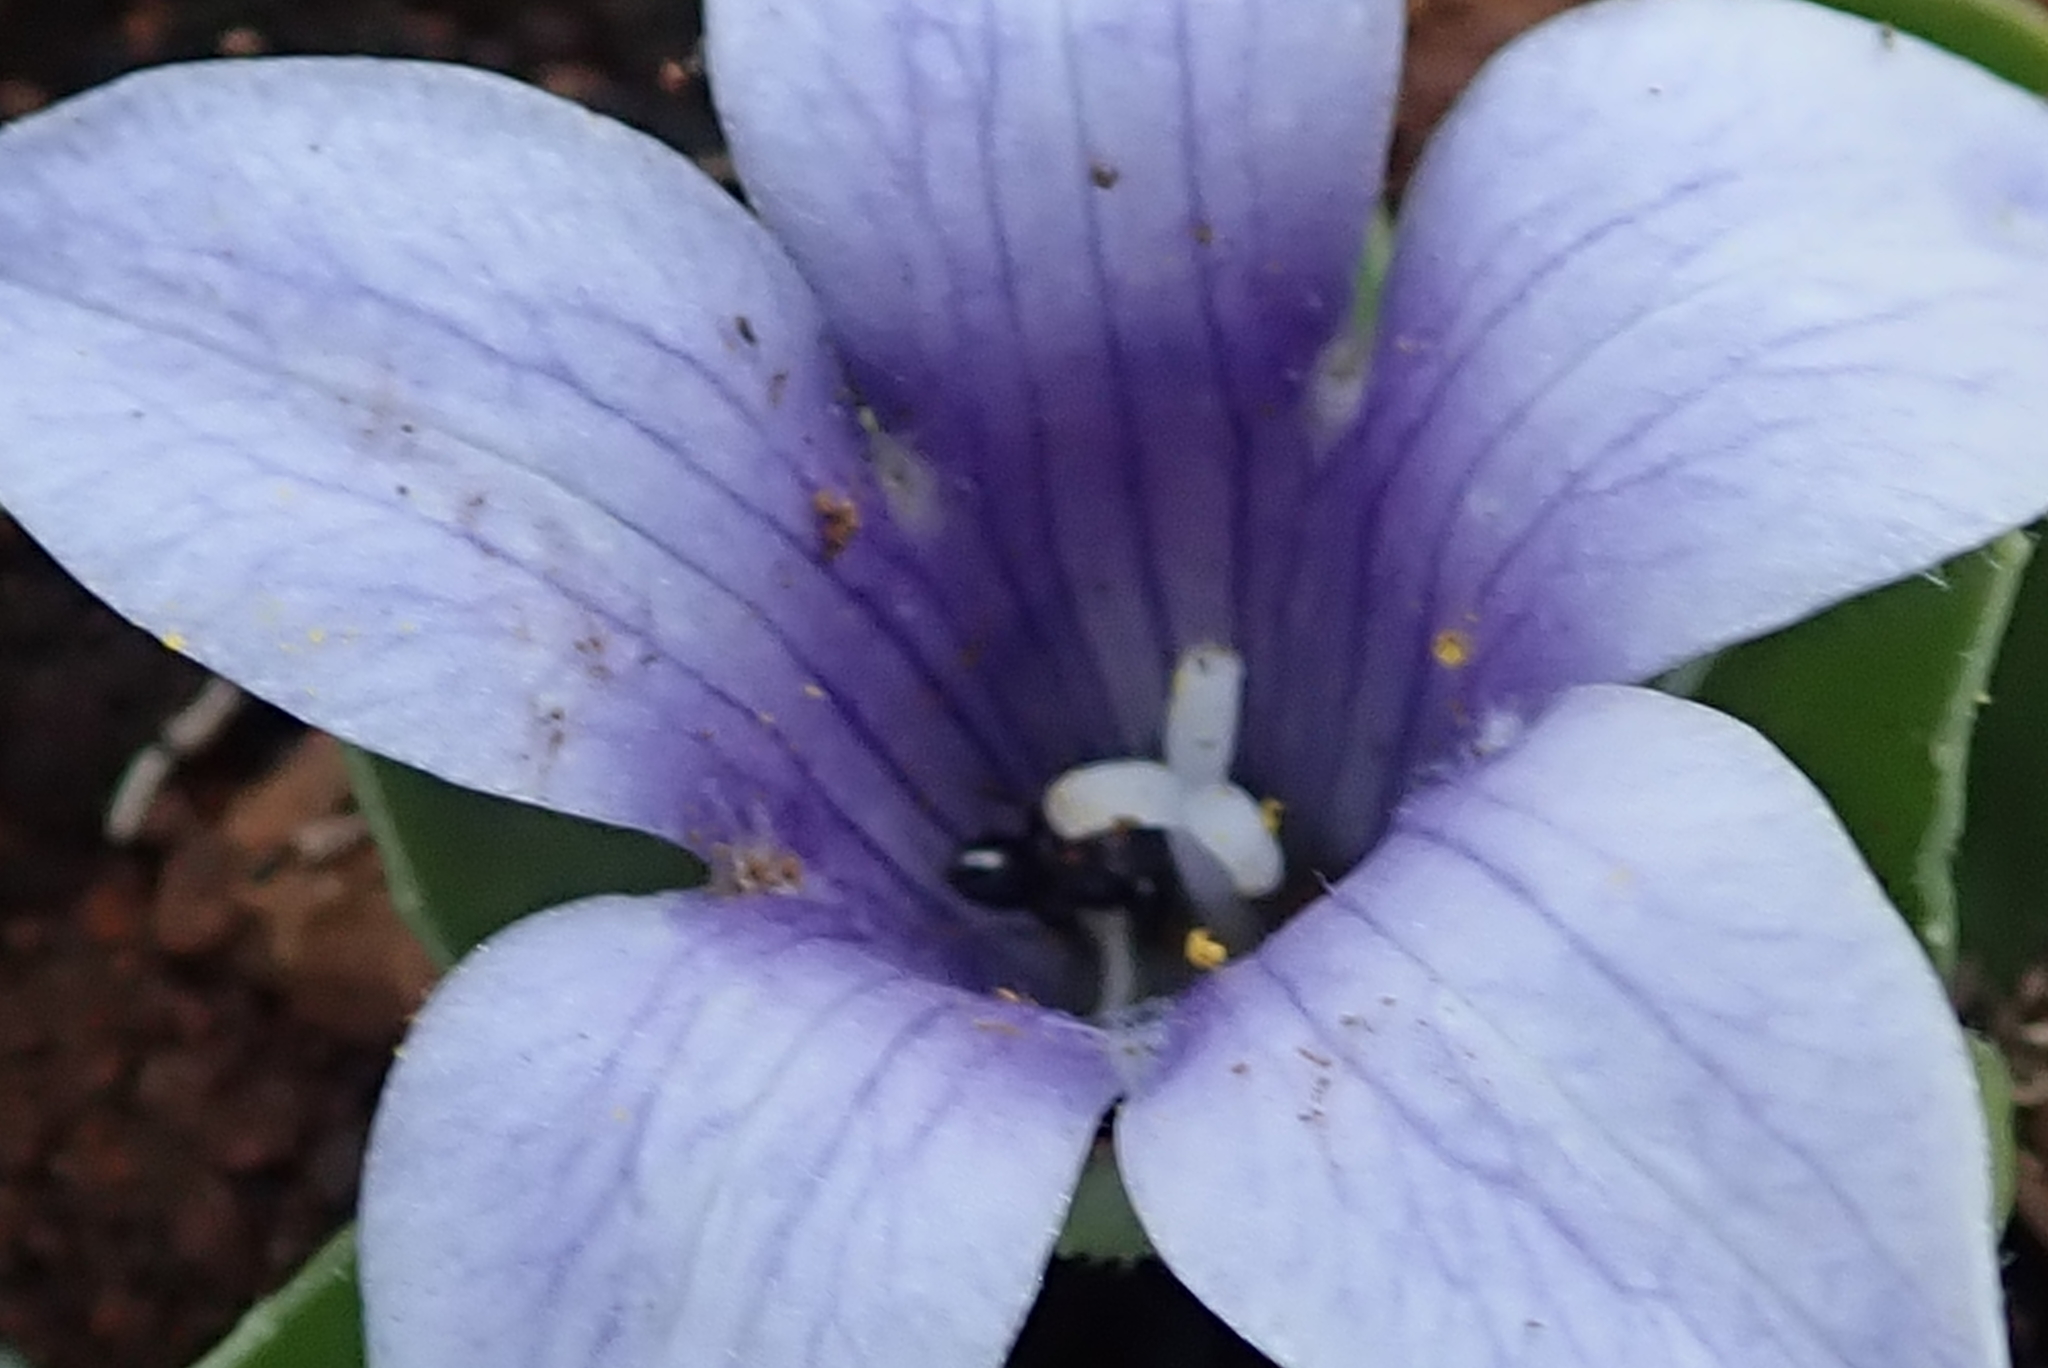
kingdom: Plantae
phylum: Tracheophyta
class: Magnoliopsida
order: Asterales
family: Campanulaceae
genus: Craterocapsa
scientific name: Craterocapsa tarsodes
